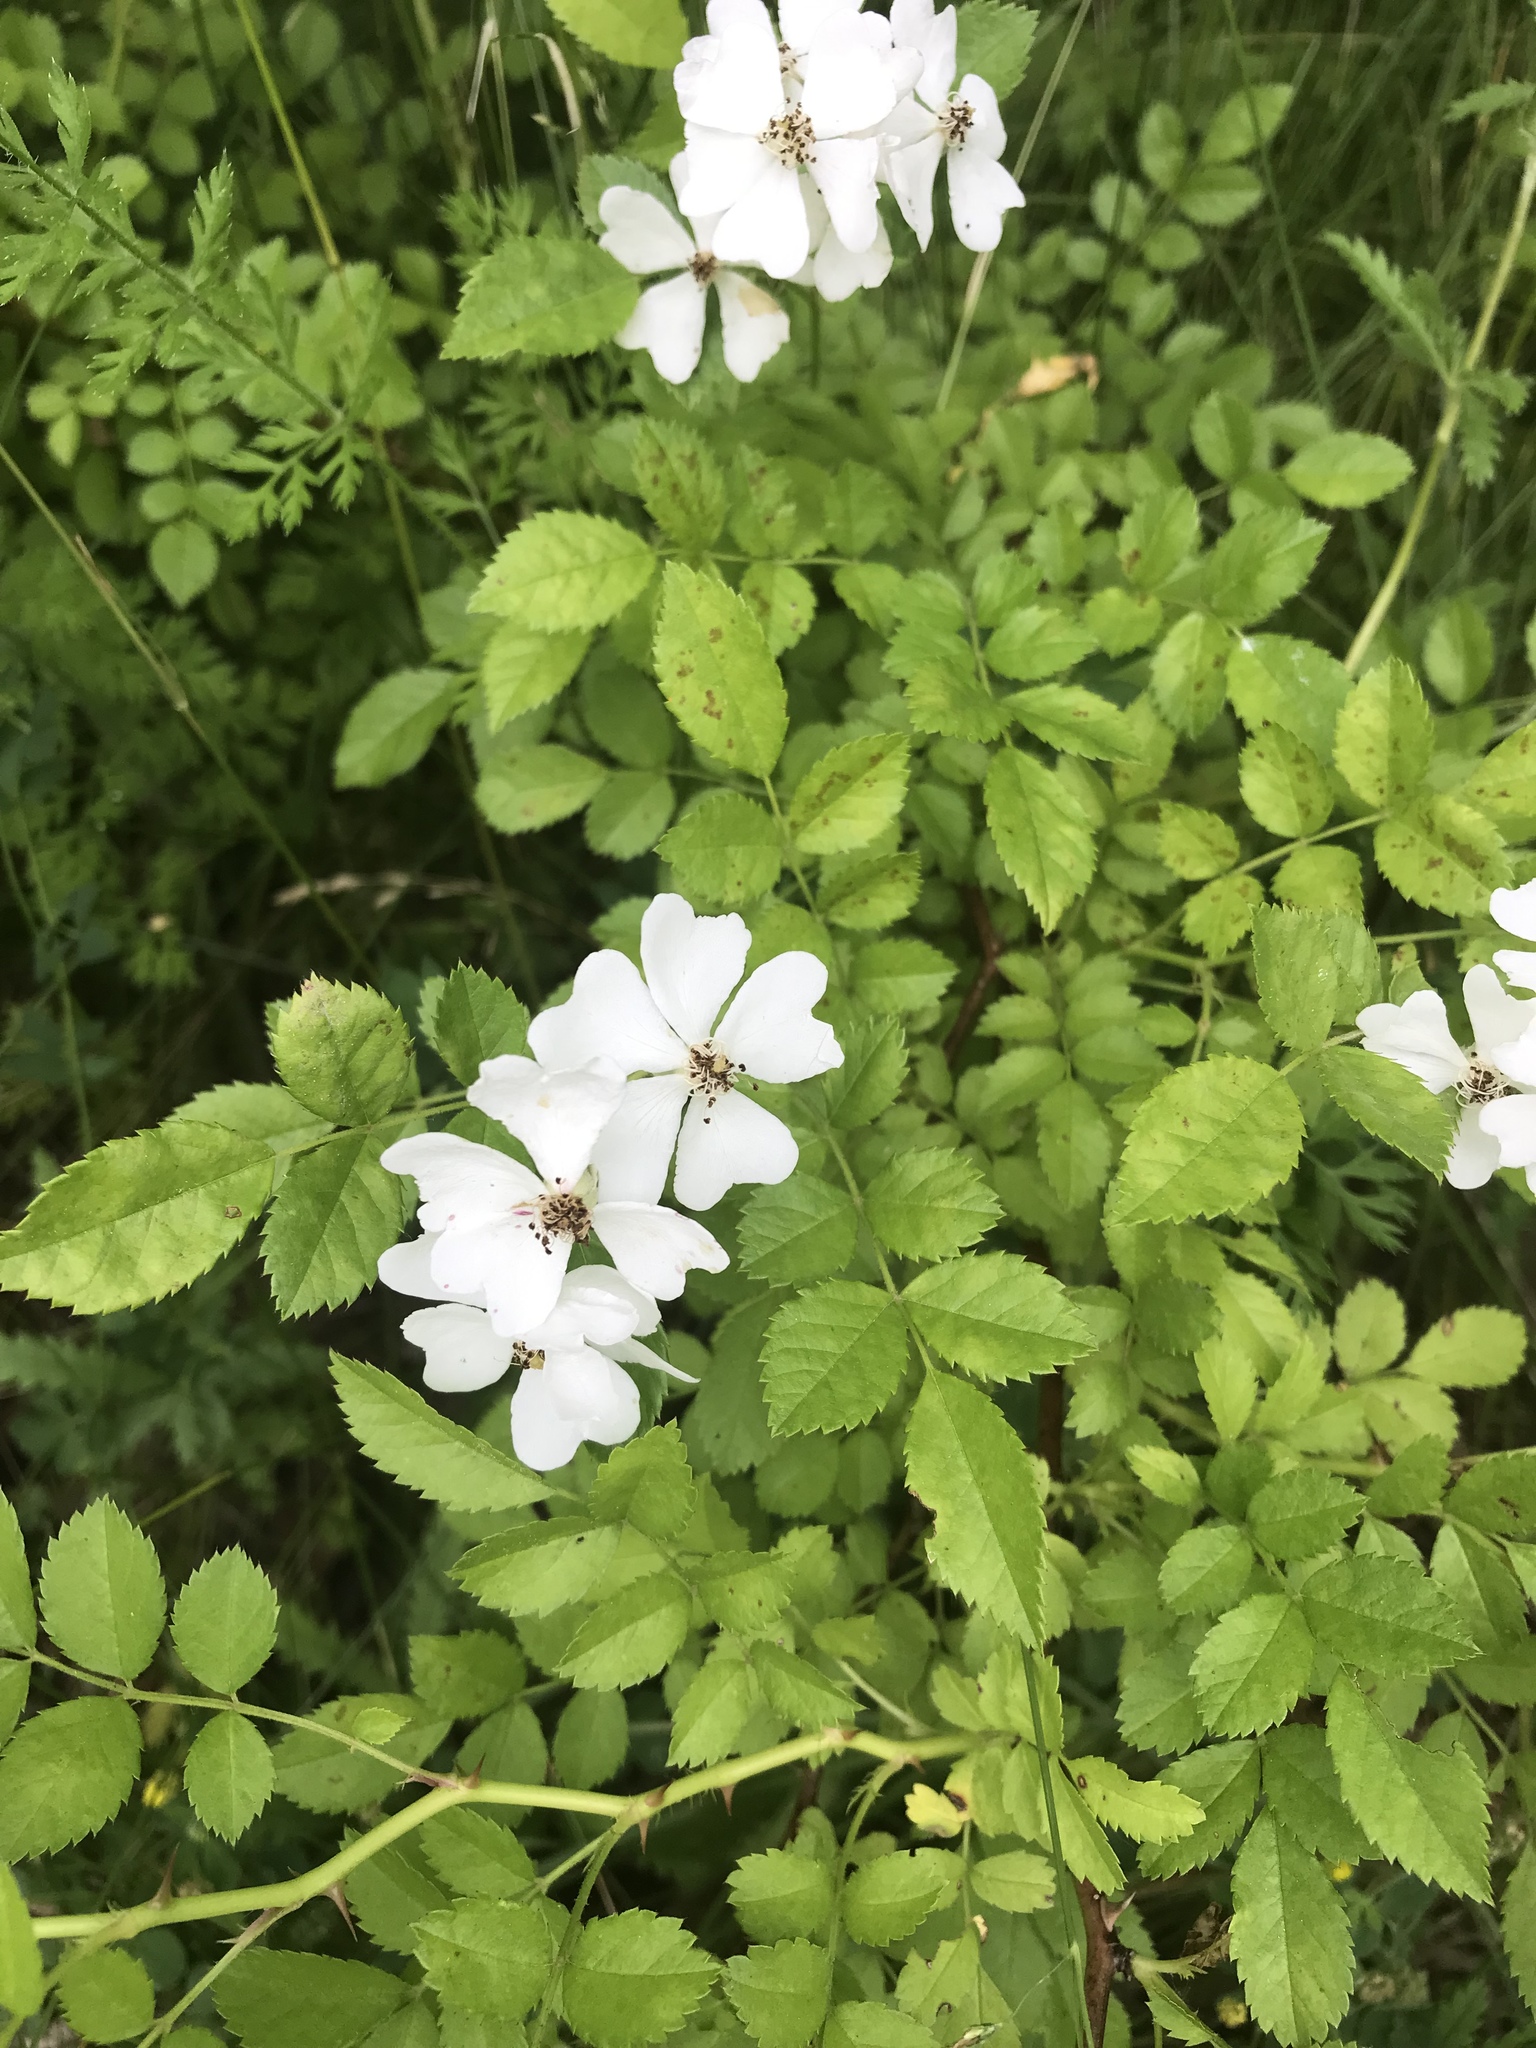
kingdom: Plantae
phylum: Tracheophyta
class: Magnoliopsida
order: Rosales
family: Rosaceae
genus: Rosa
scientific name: Rosa multiflora
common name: Multiflora rose
